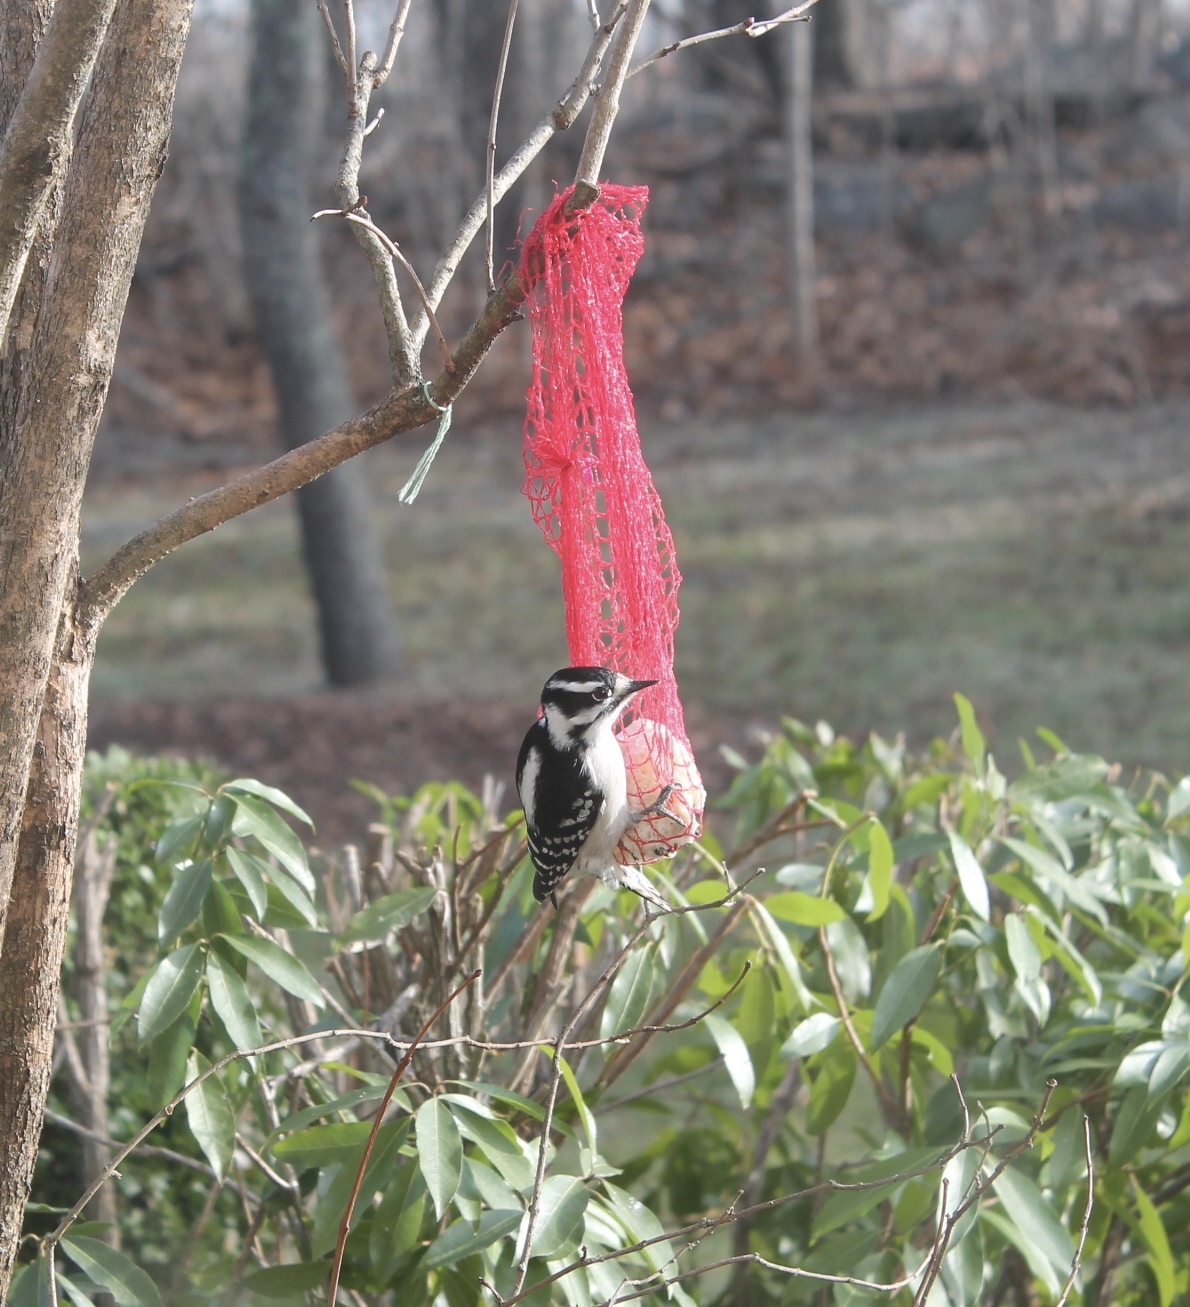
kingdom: Animalia
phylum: Chordata
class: Aves
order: Piciformes
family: Picidae
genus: Dryobates
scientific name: Dryobates pubescens
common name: Downy woodpecker
